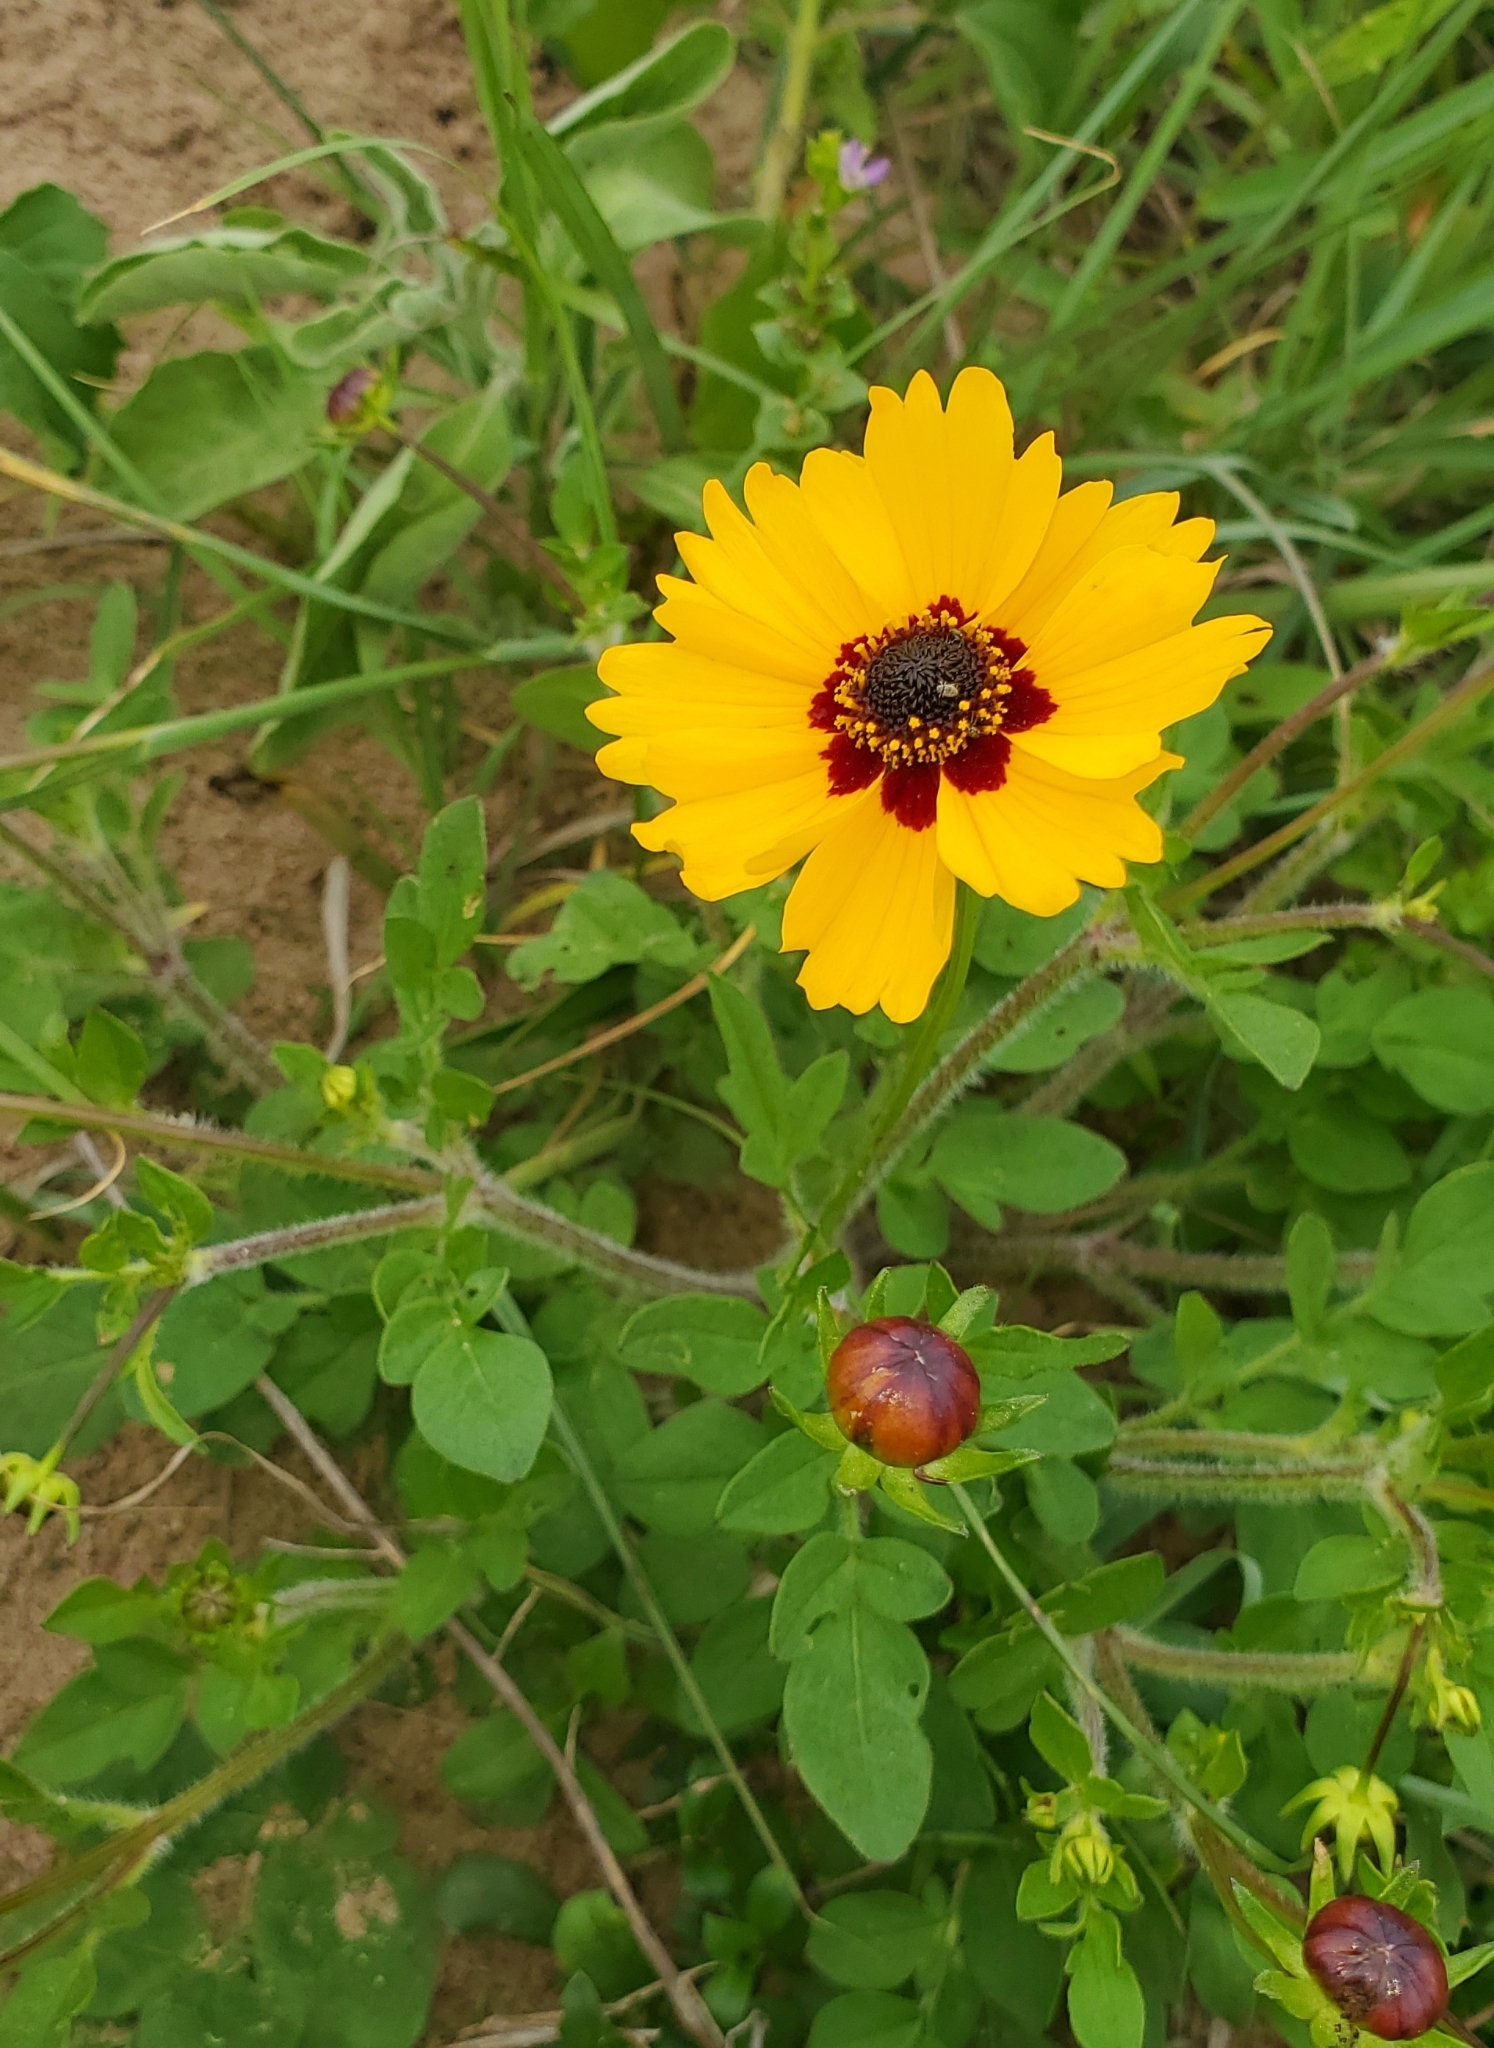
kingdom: Plantae
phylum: Tracheophyta
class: Magnoliopsida
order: Asterales
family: Asteraceae
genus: Coreopsis
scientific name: Coreopsis basalis
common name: Golden-mane coreopsis
